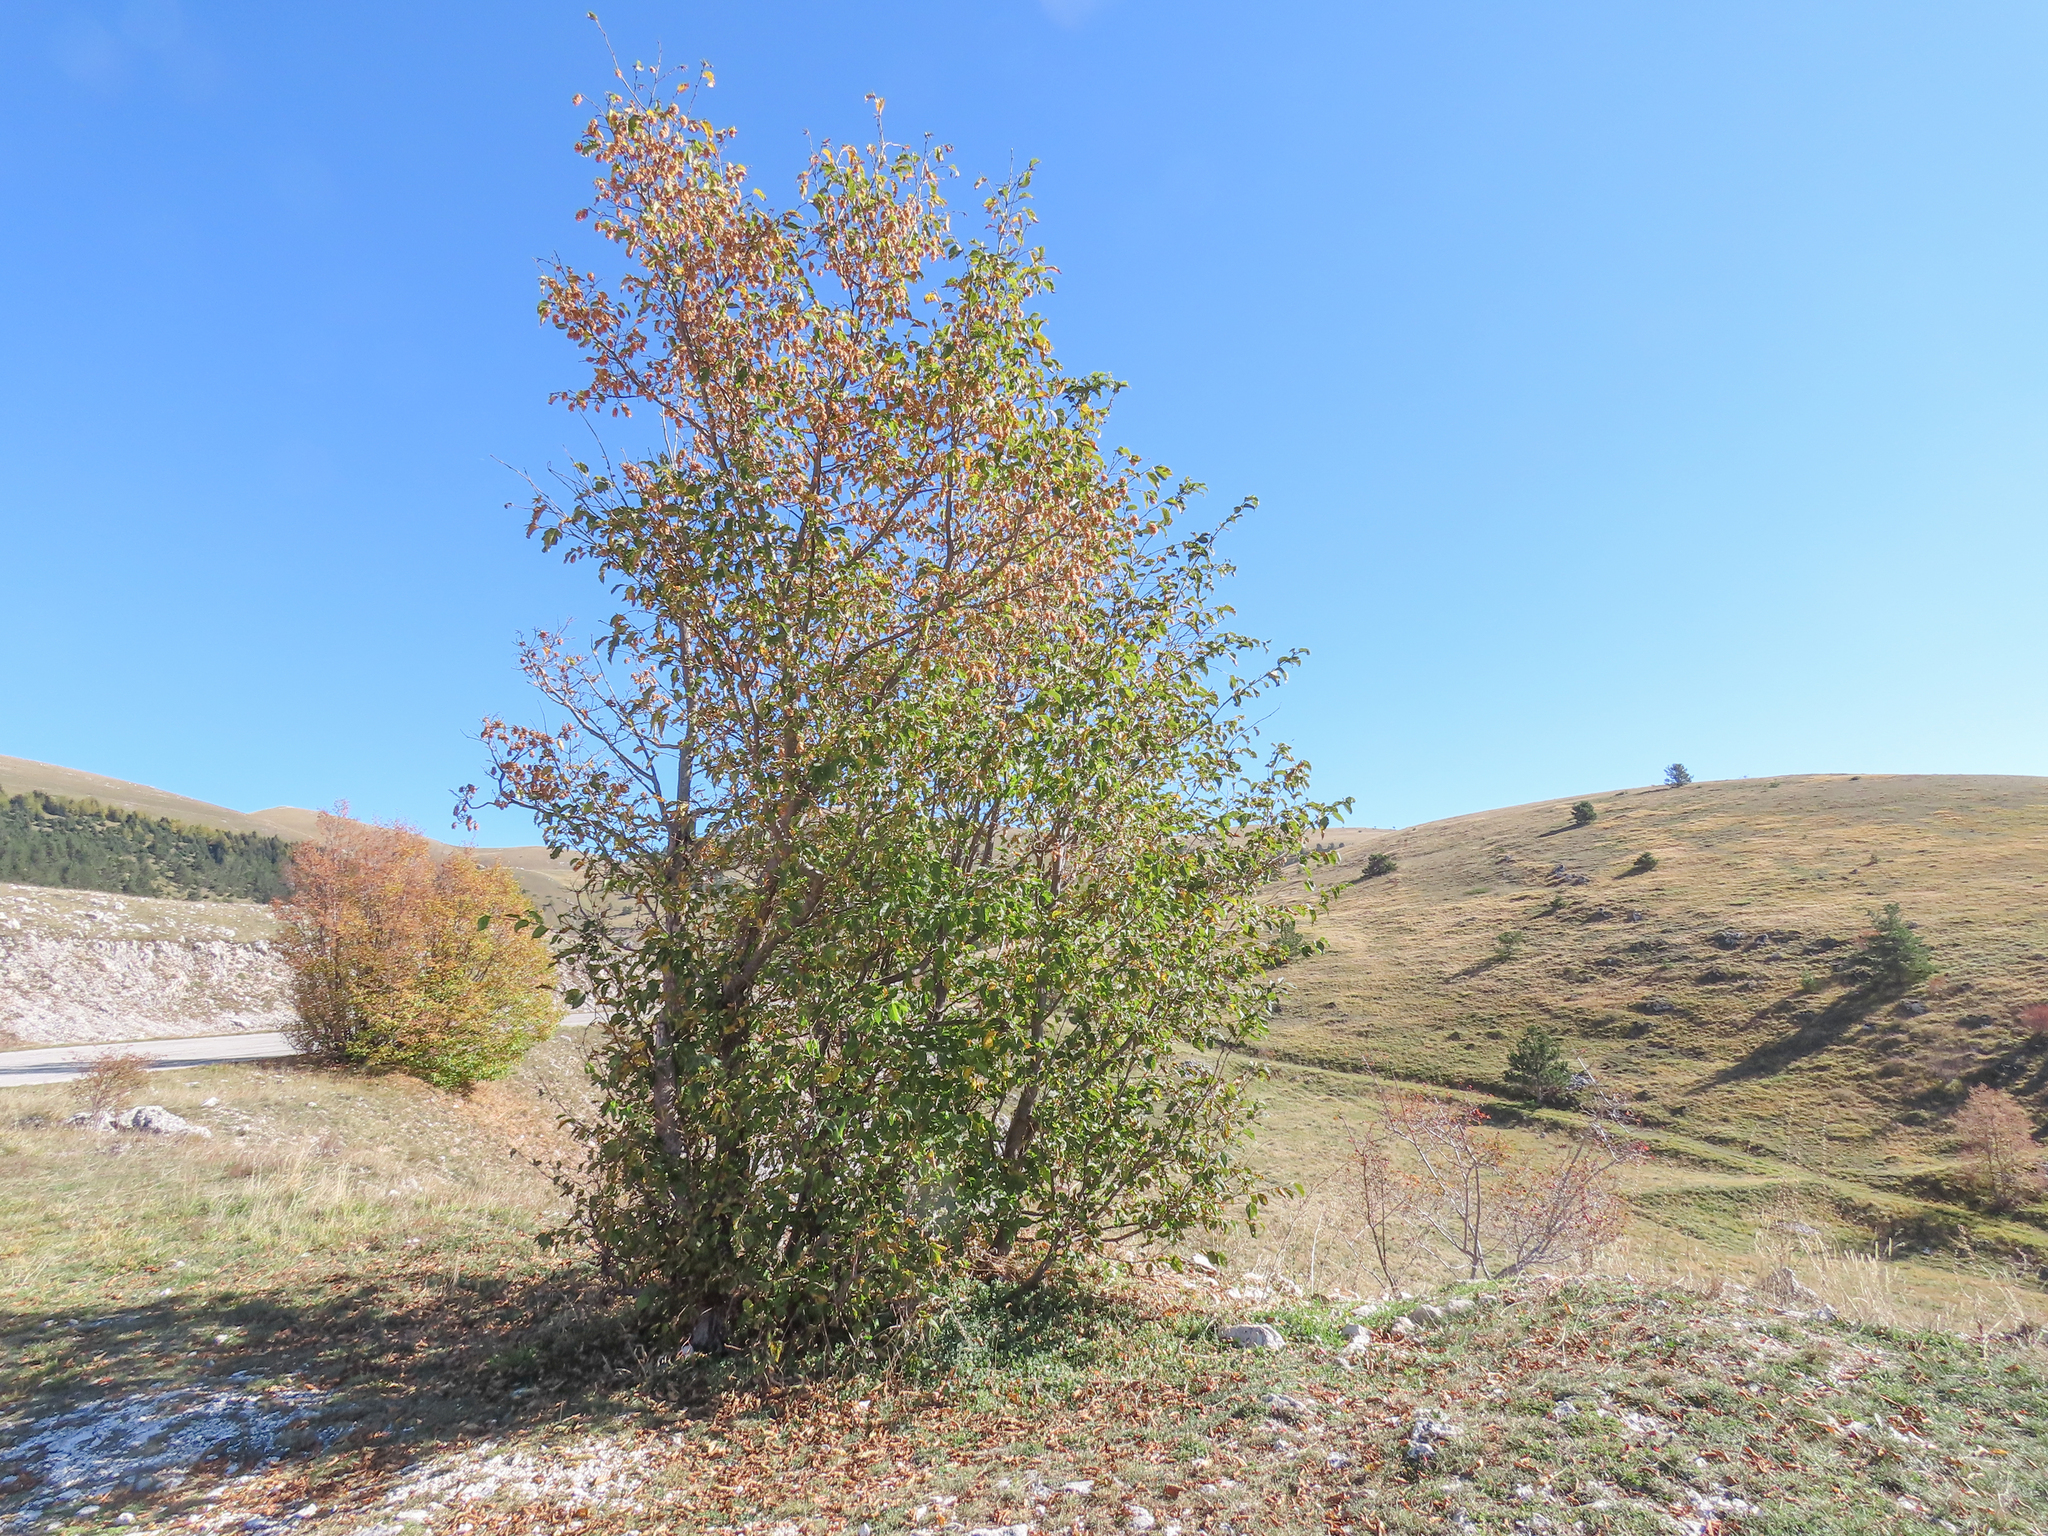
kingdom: Plantae
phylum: Tracheophyta
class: Magnoliopsida
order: Fagales
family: Betulaceae
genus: Ostrya
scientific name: Ostrya carpinifolia
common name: European hop-hornbeam
